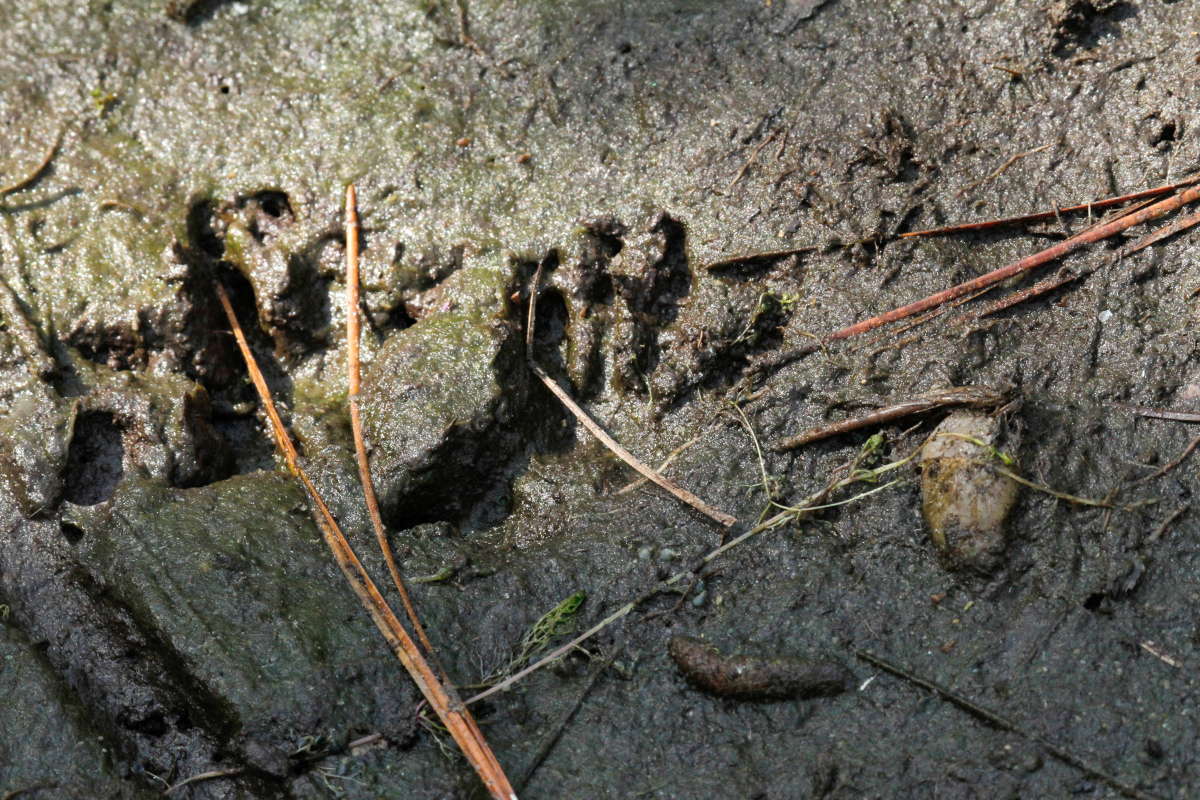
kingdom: Animalia
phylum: Chordata
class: Mammalia
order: Rodentia
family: Cricetidae
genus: Ondatra
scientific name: Ondatra zibethicus
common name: Muskrat
